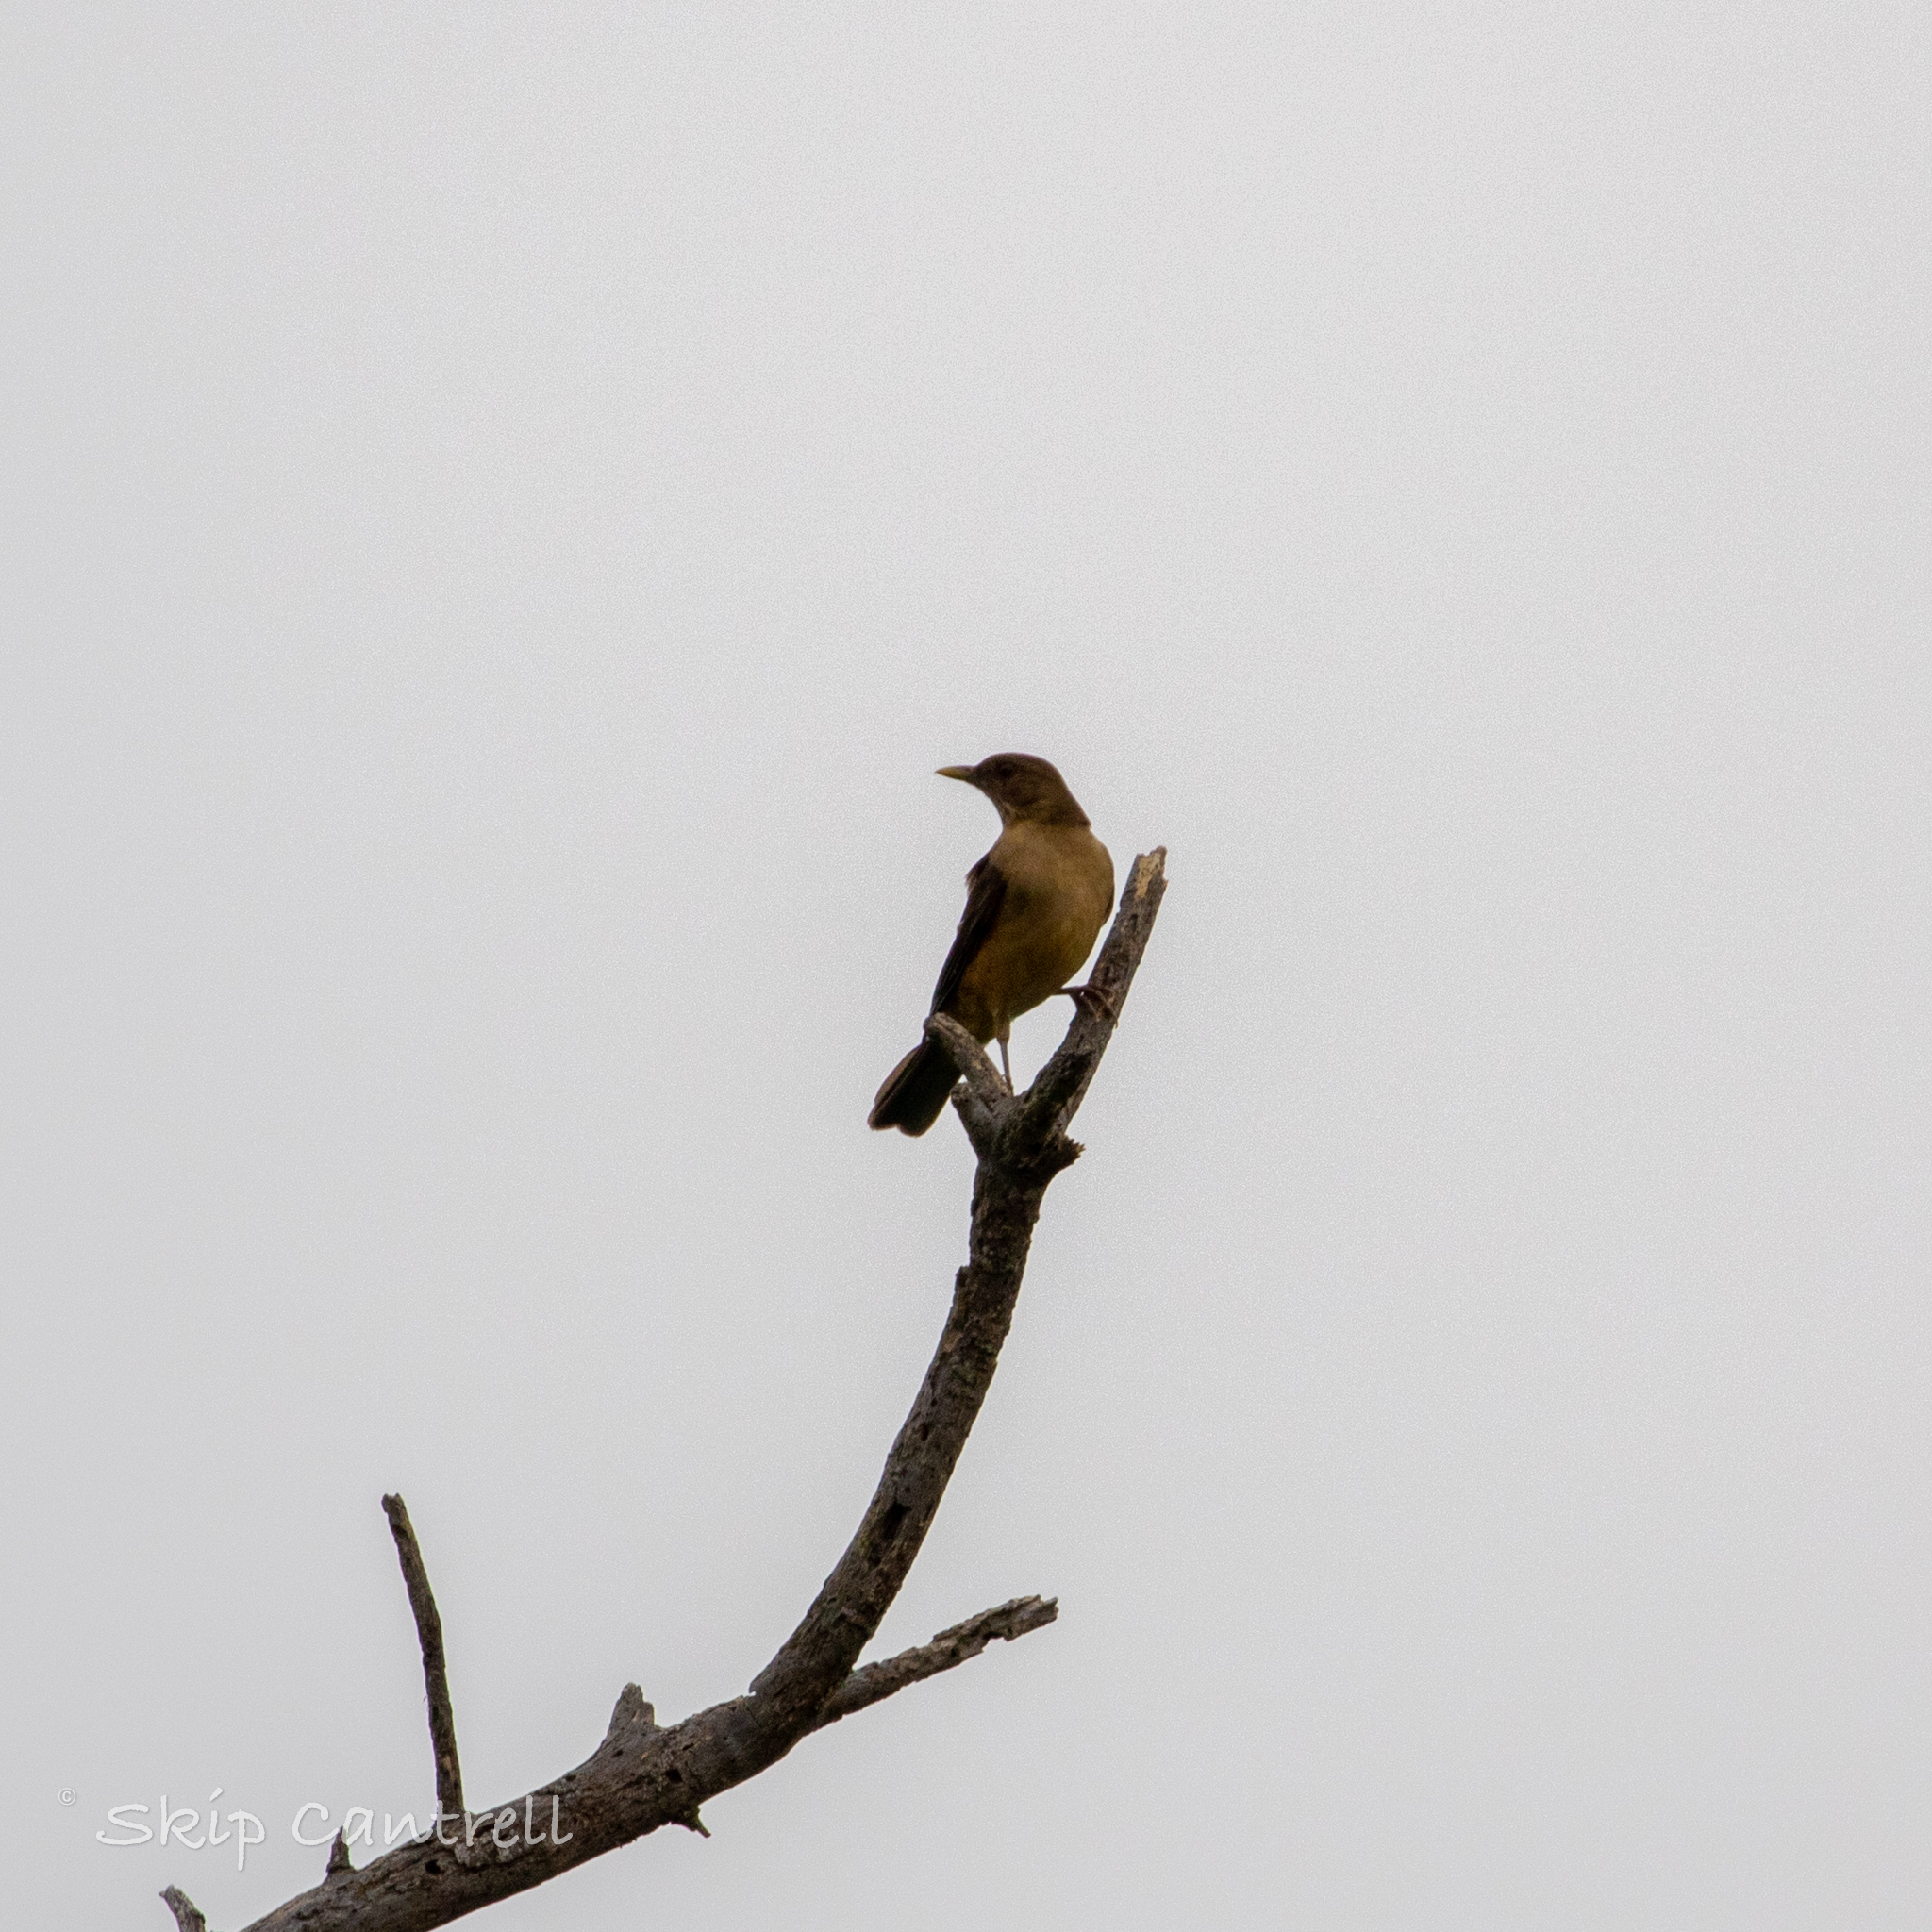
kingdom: Animalia
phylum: Chordata
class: Aves
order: Passeriformes
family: Turdidae
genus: Turdus
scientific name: Turdus grayi
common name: Clay-colored thrush
